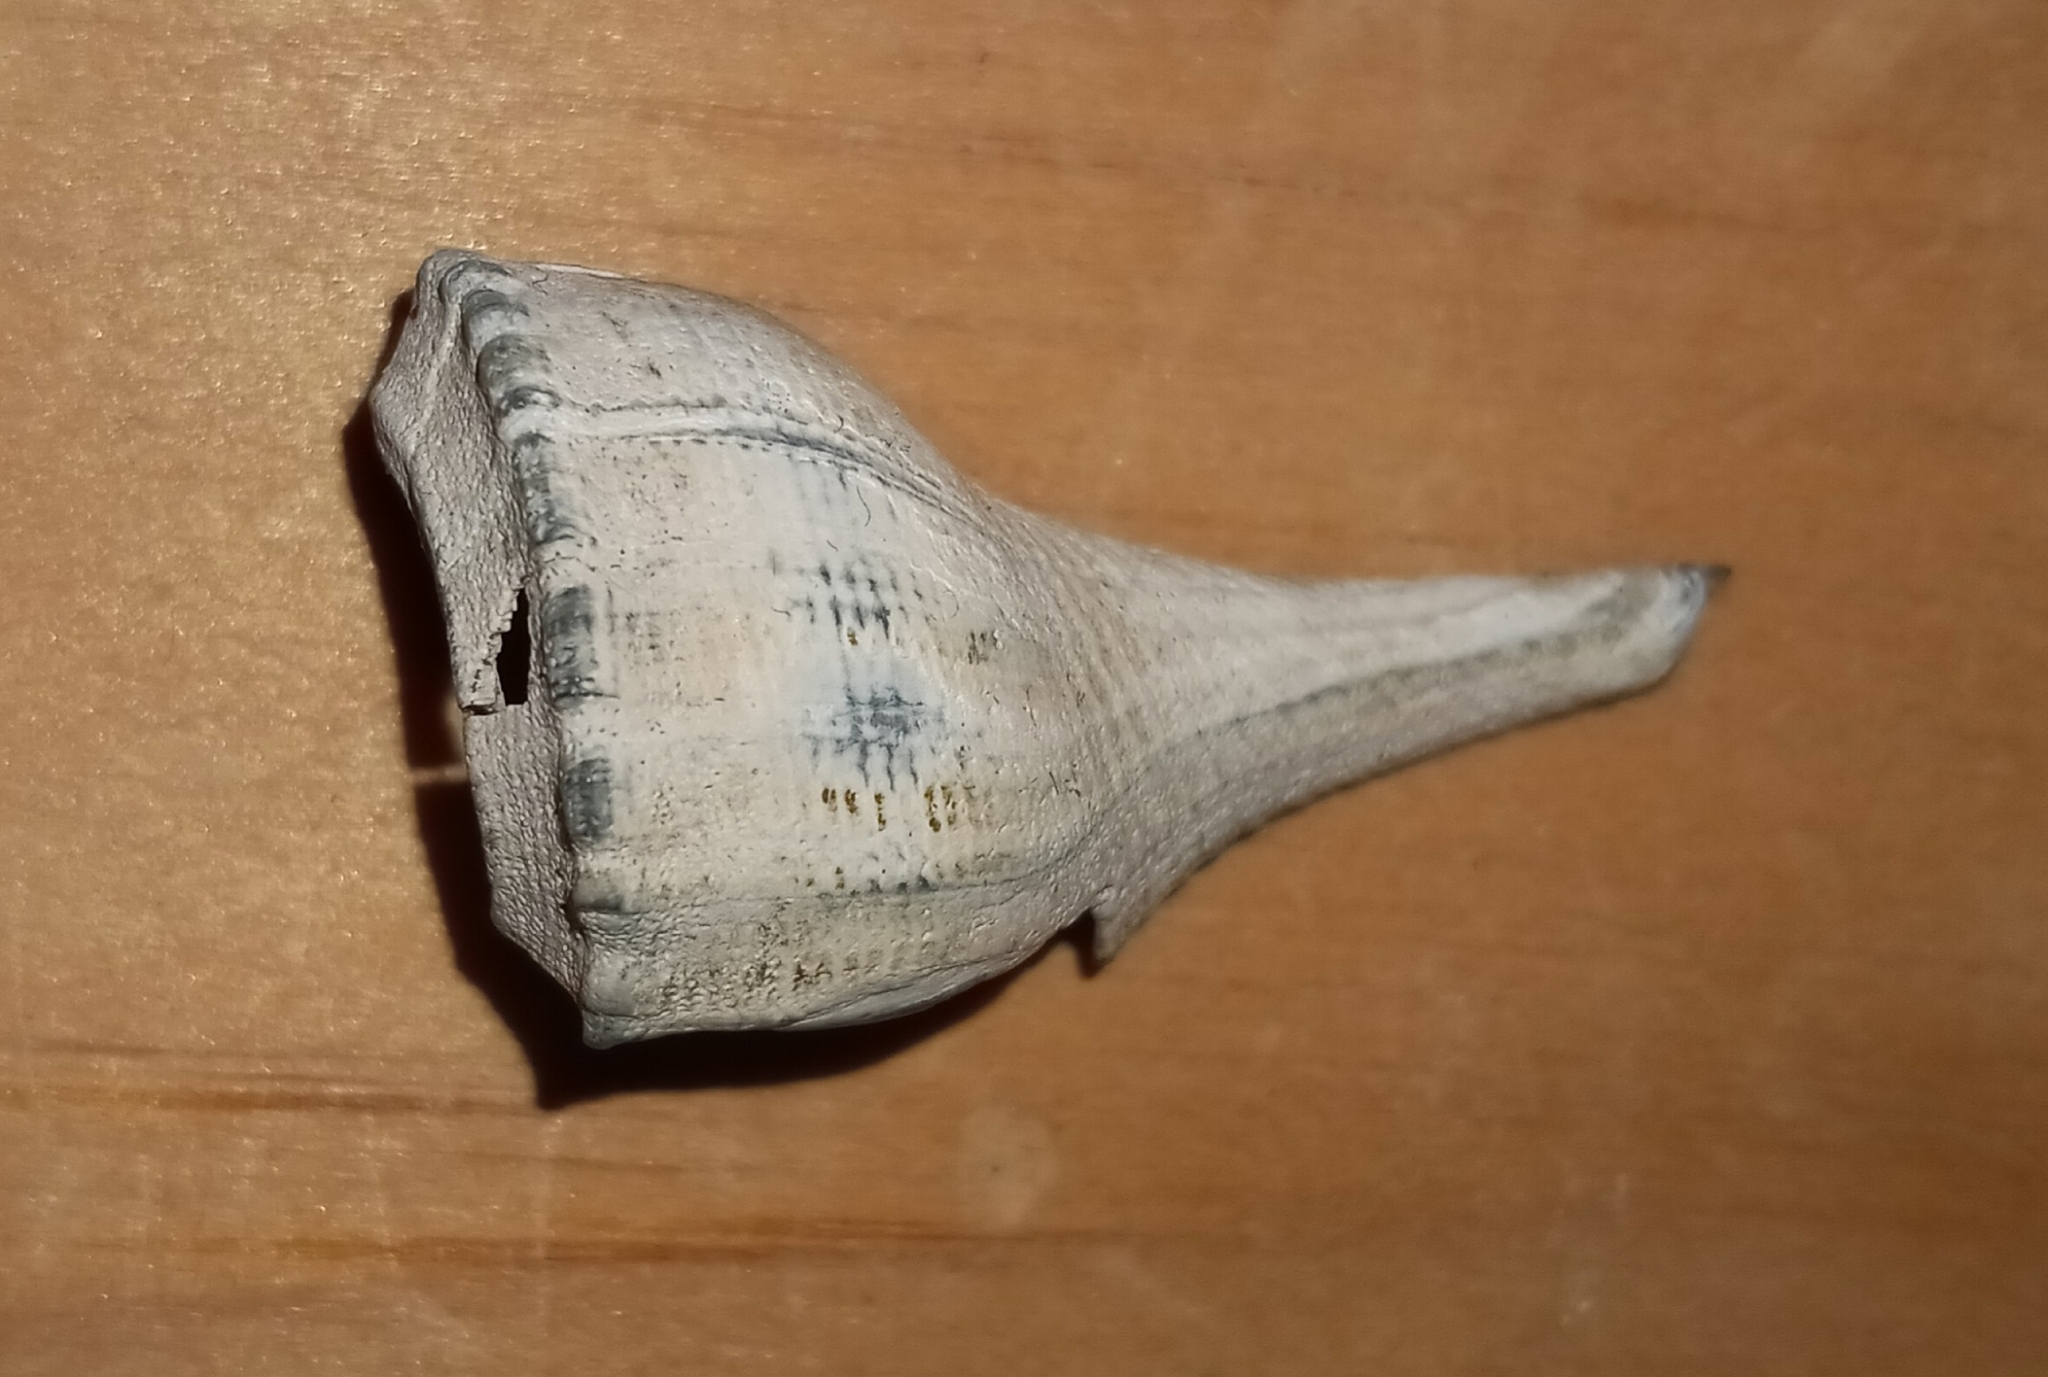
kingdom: Animalia
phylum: Mollusca
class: Gastropoda
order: Neogastropoda
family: Busyconidae
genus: Busycotypus
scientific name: Busycotypus canaliculatus
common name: Channeled whelk
